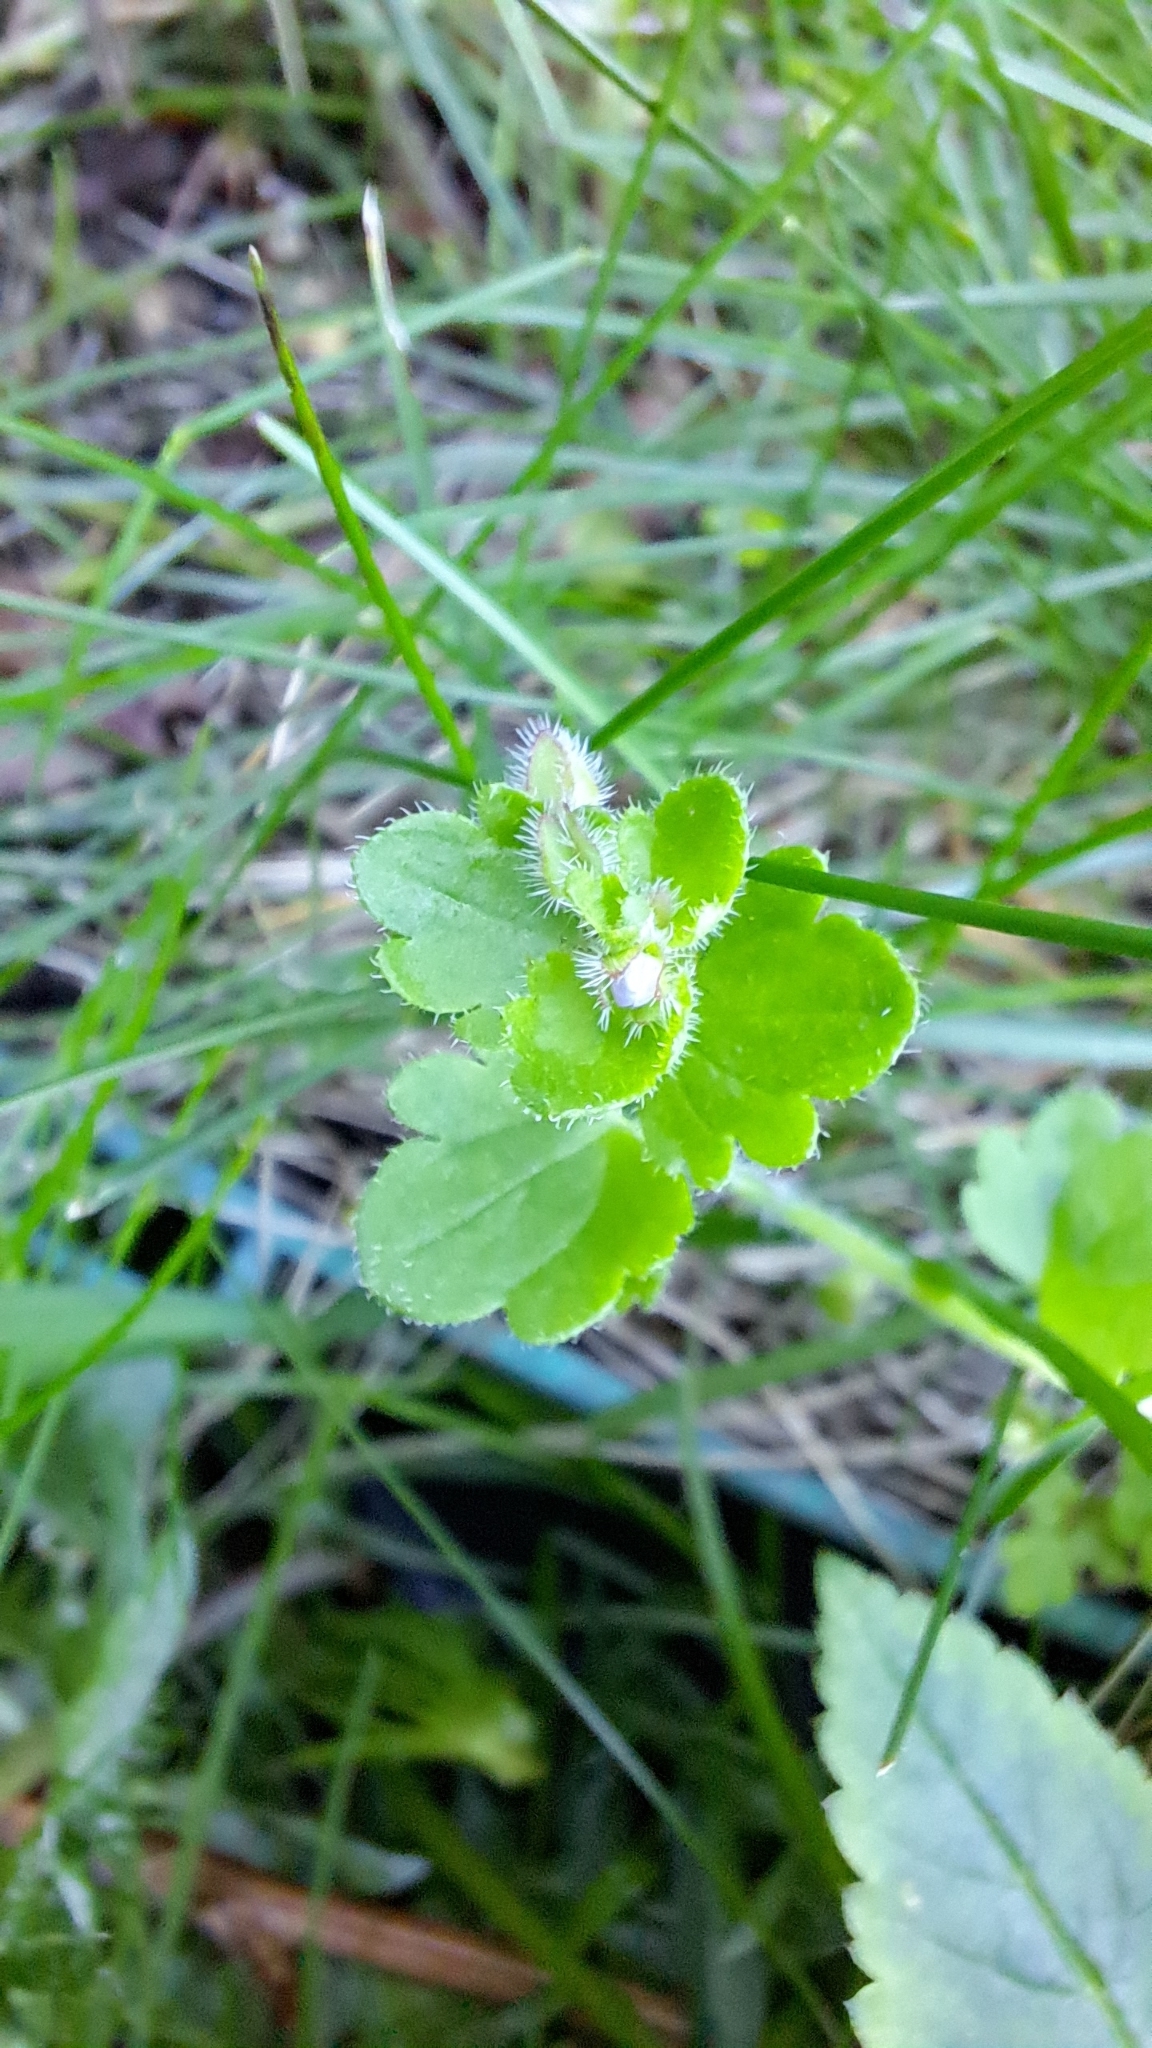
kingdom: Plantae
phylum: Tracheophyta
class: Magnoliopsida
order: Lamiales
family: Plantaginaceae
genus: Veronica
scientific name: Veronica hederifolia
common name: Ivy-leaved speedwell
